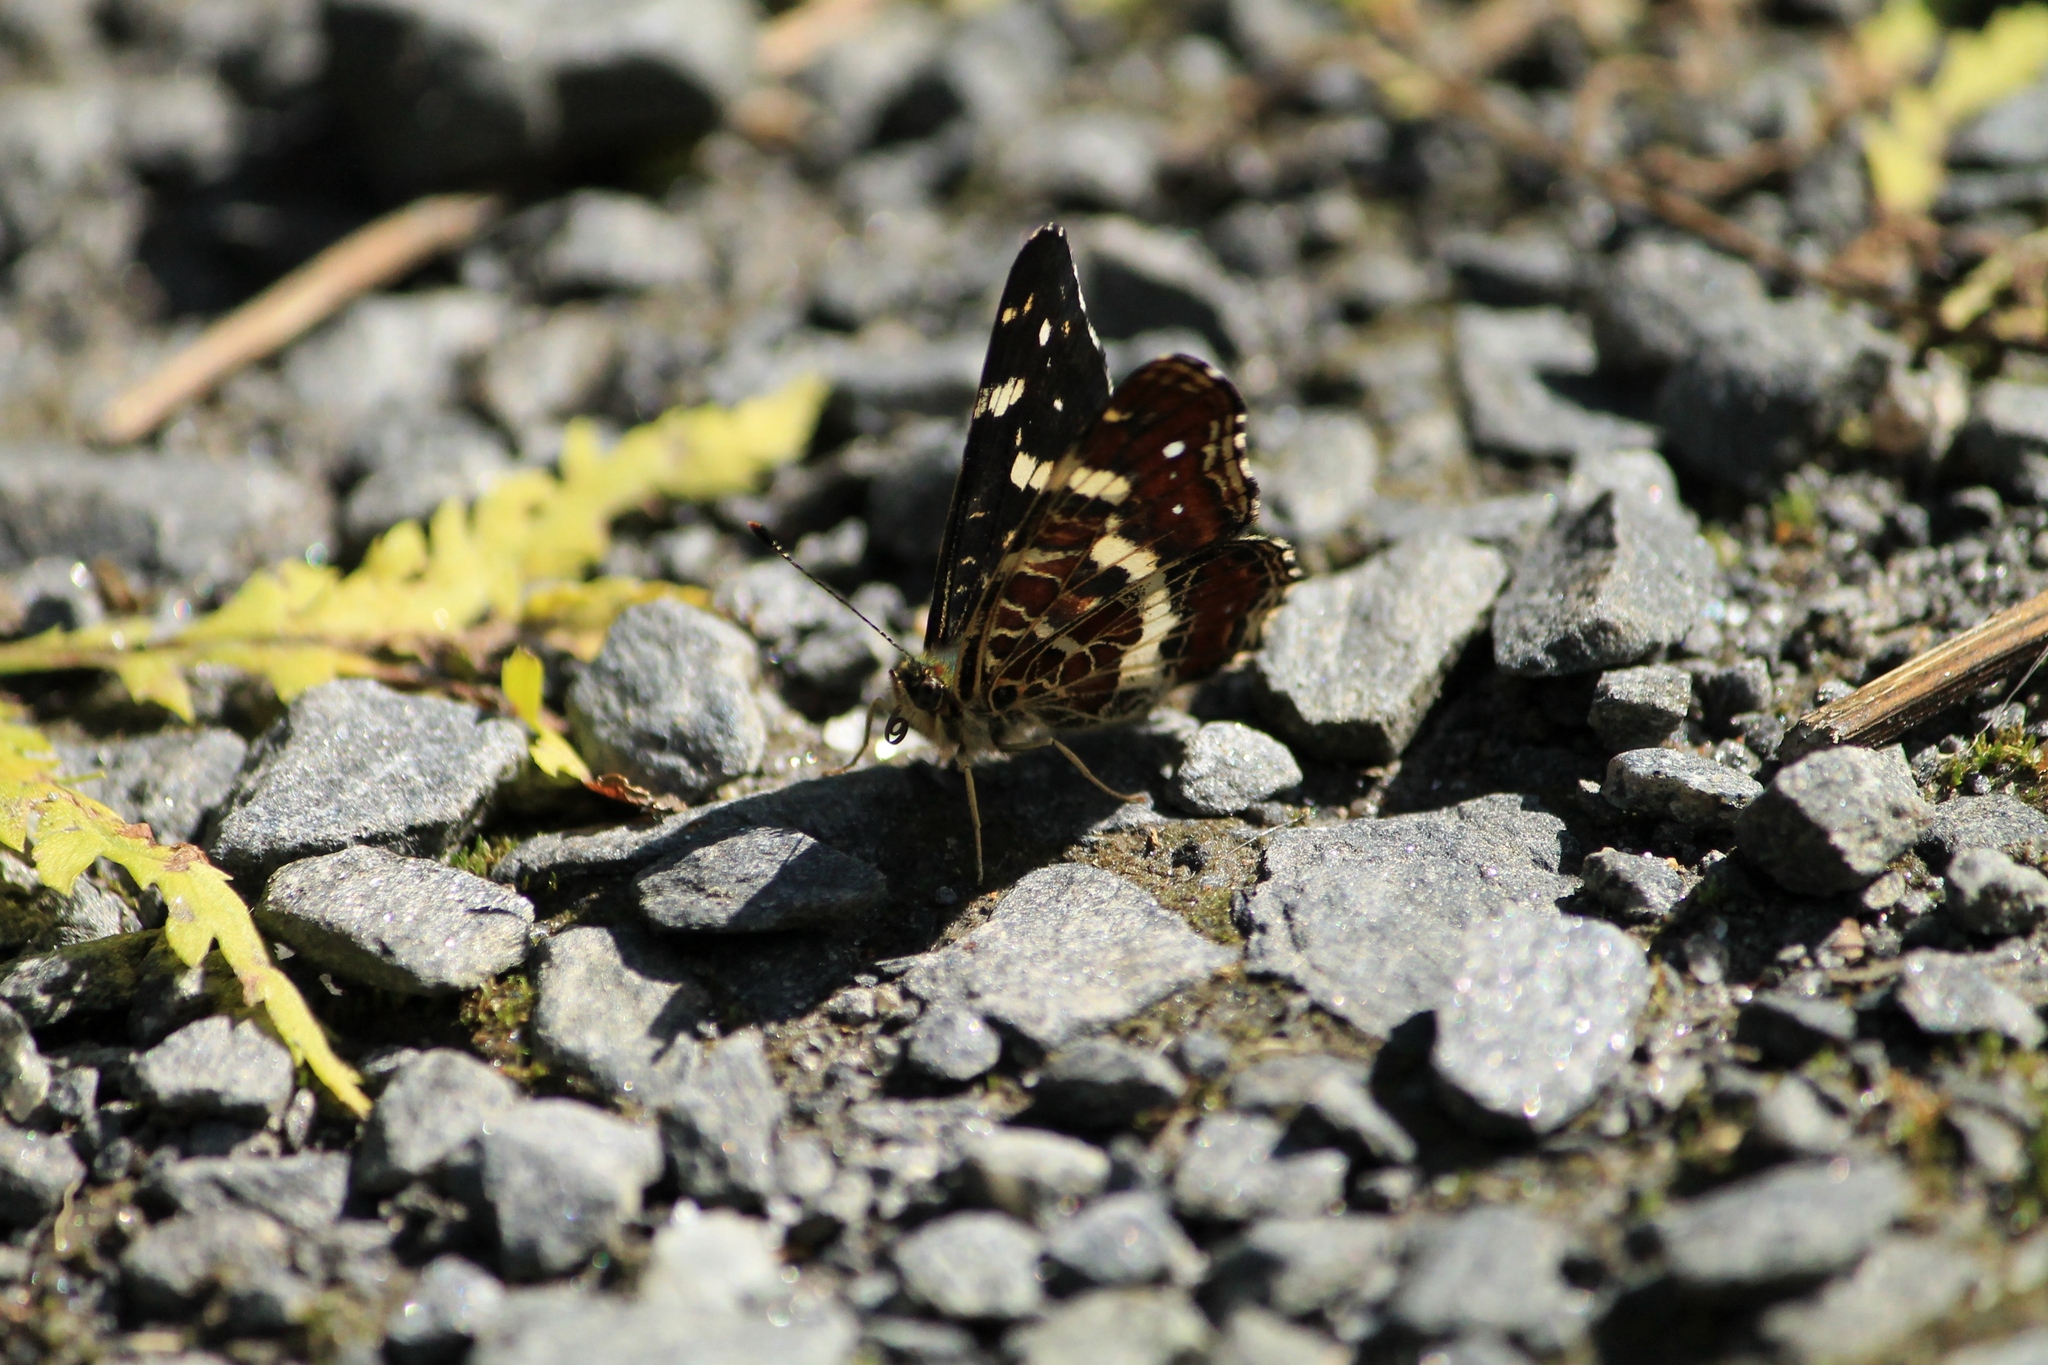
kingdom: Animalia
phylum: Arthropoda
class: Insecta
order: Lepidoptera
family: Nymphalidae
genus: Araschnia
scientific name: Araschnia levana
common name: Map butterfly
